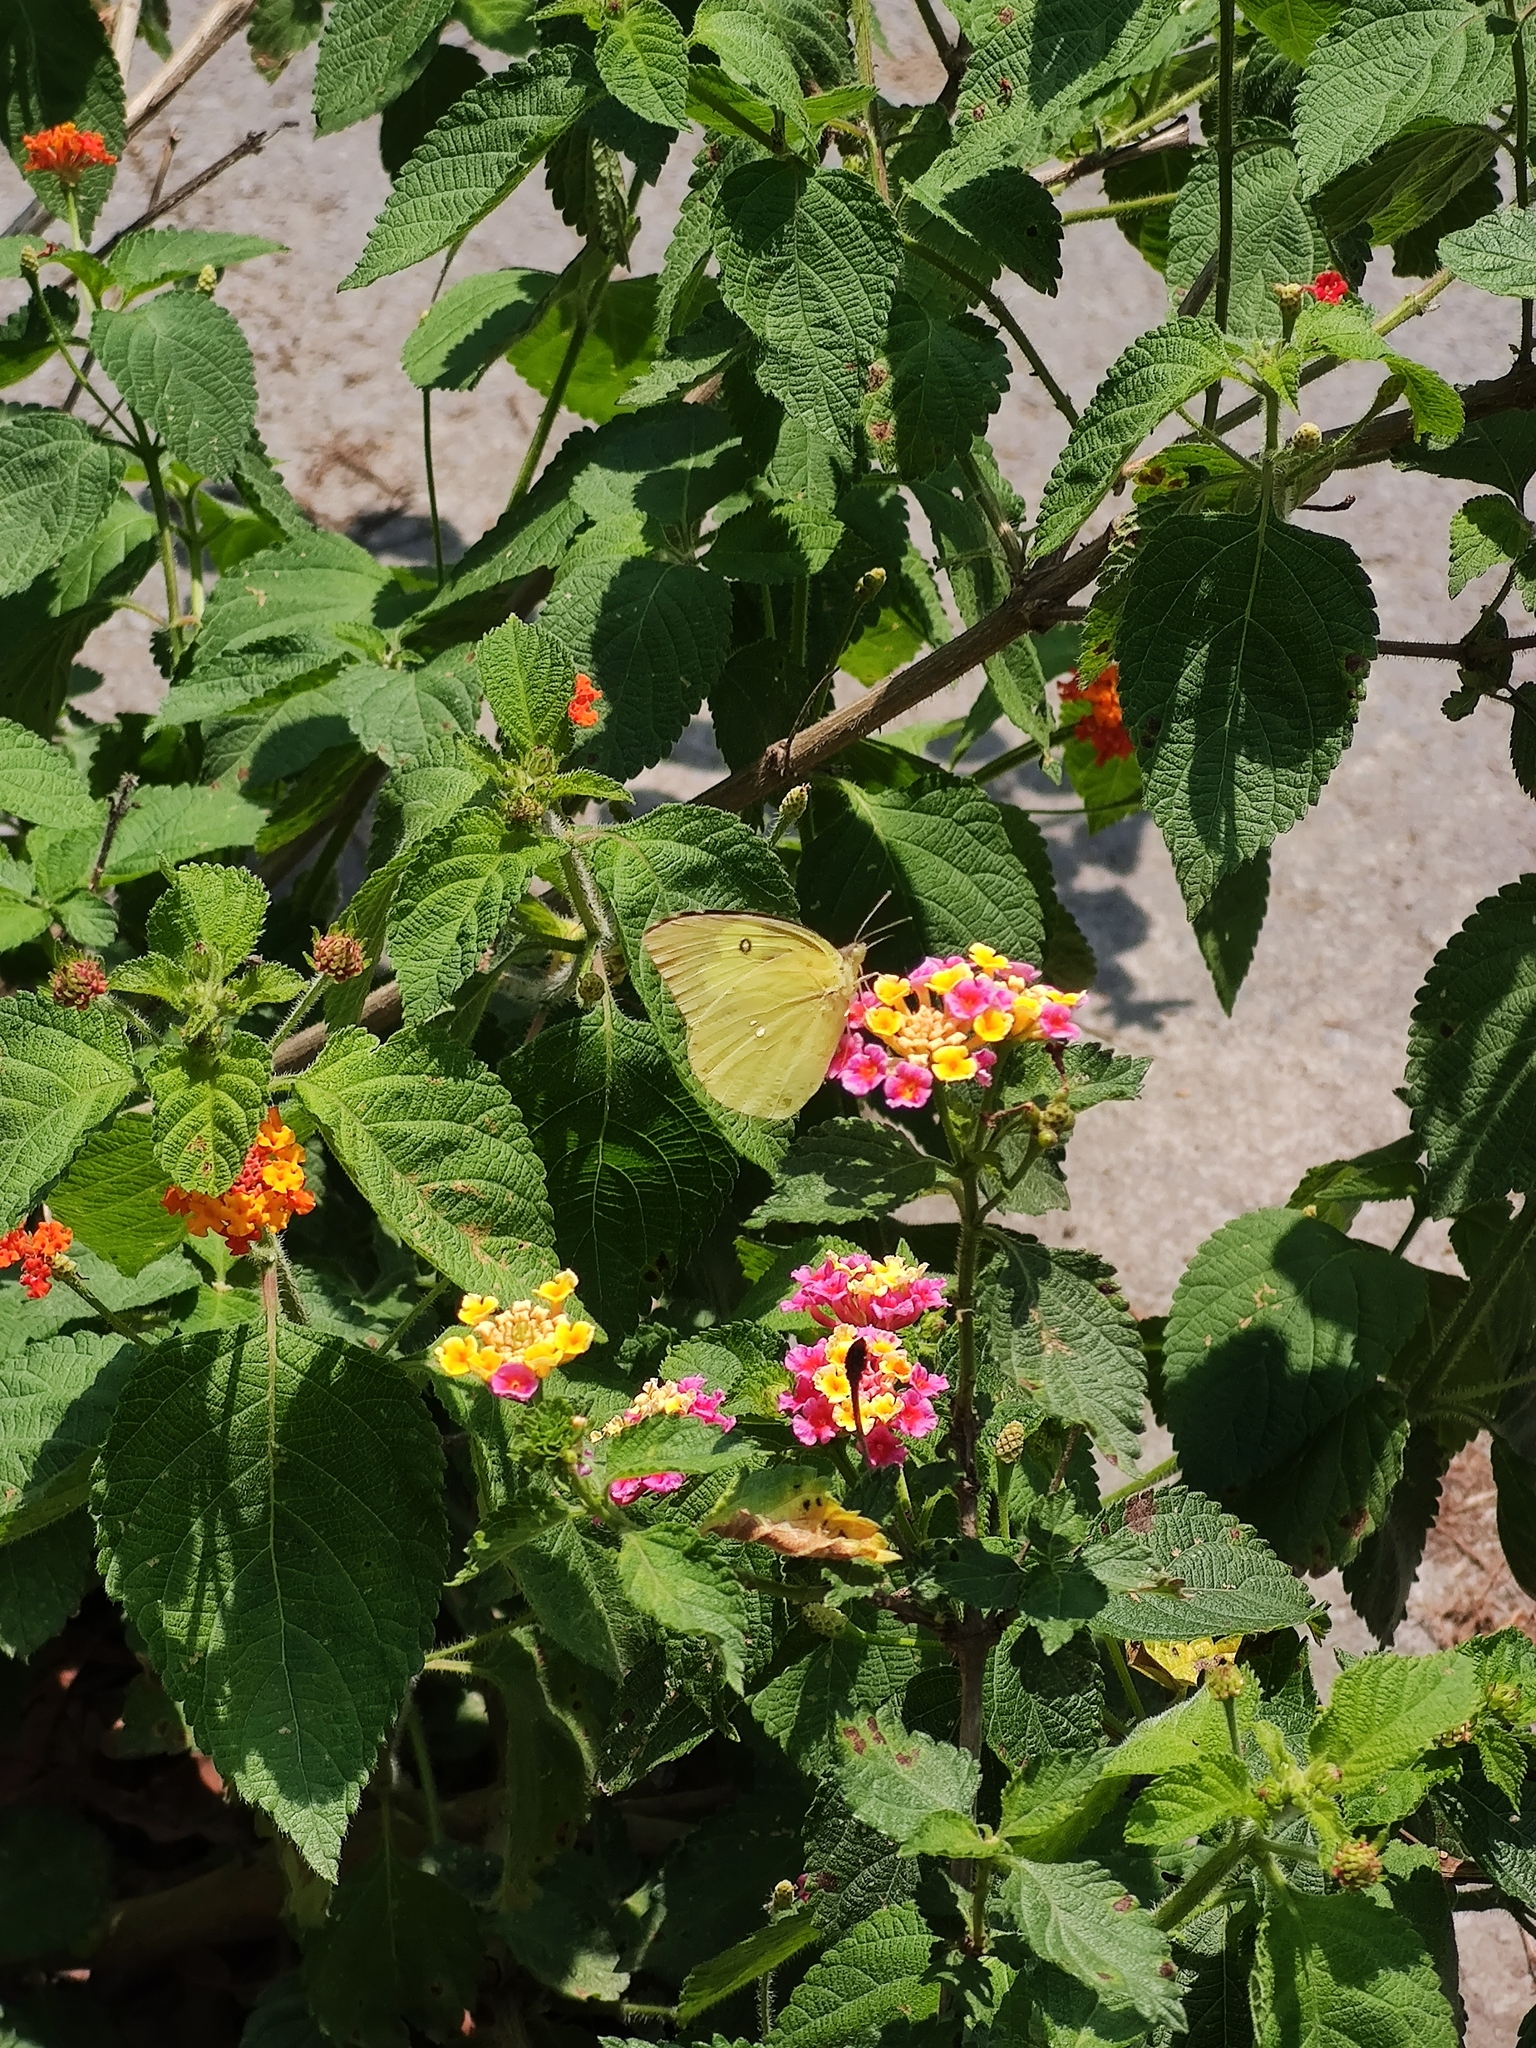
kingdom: Animalia
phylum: Arthropoda
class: Insecta
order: Lepidoptera
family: Pieridae
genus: Zerene
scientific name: Zerene cesonia
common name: Southern dogface
